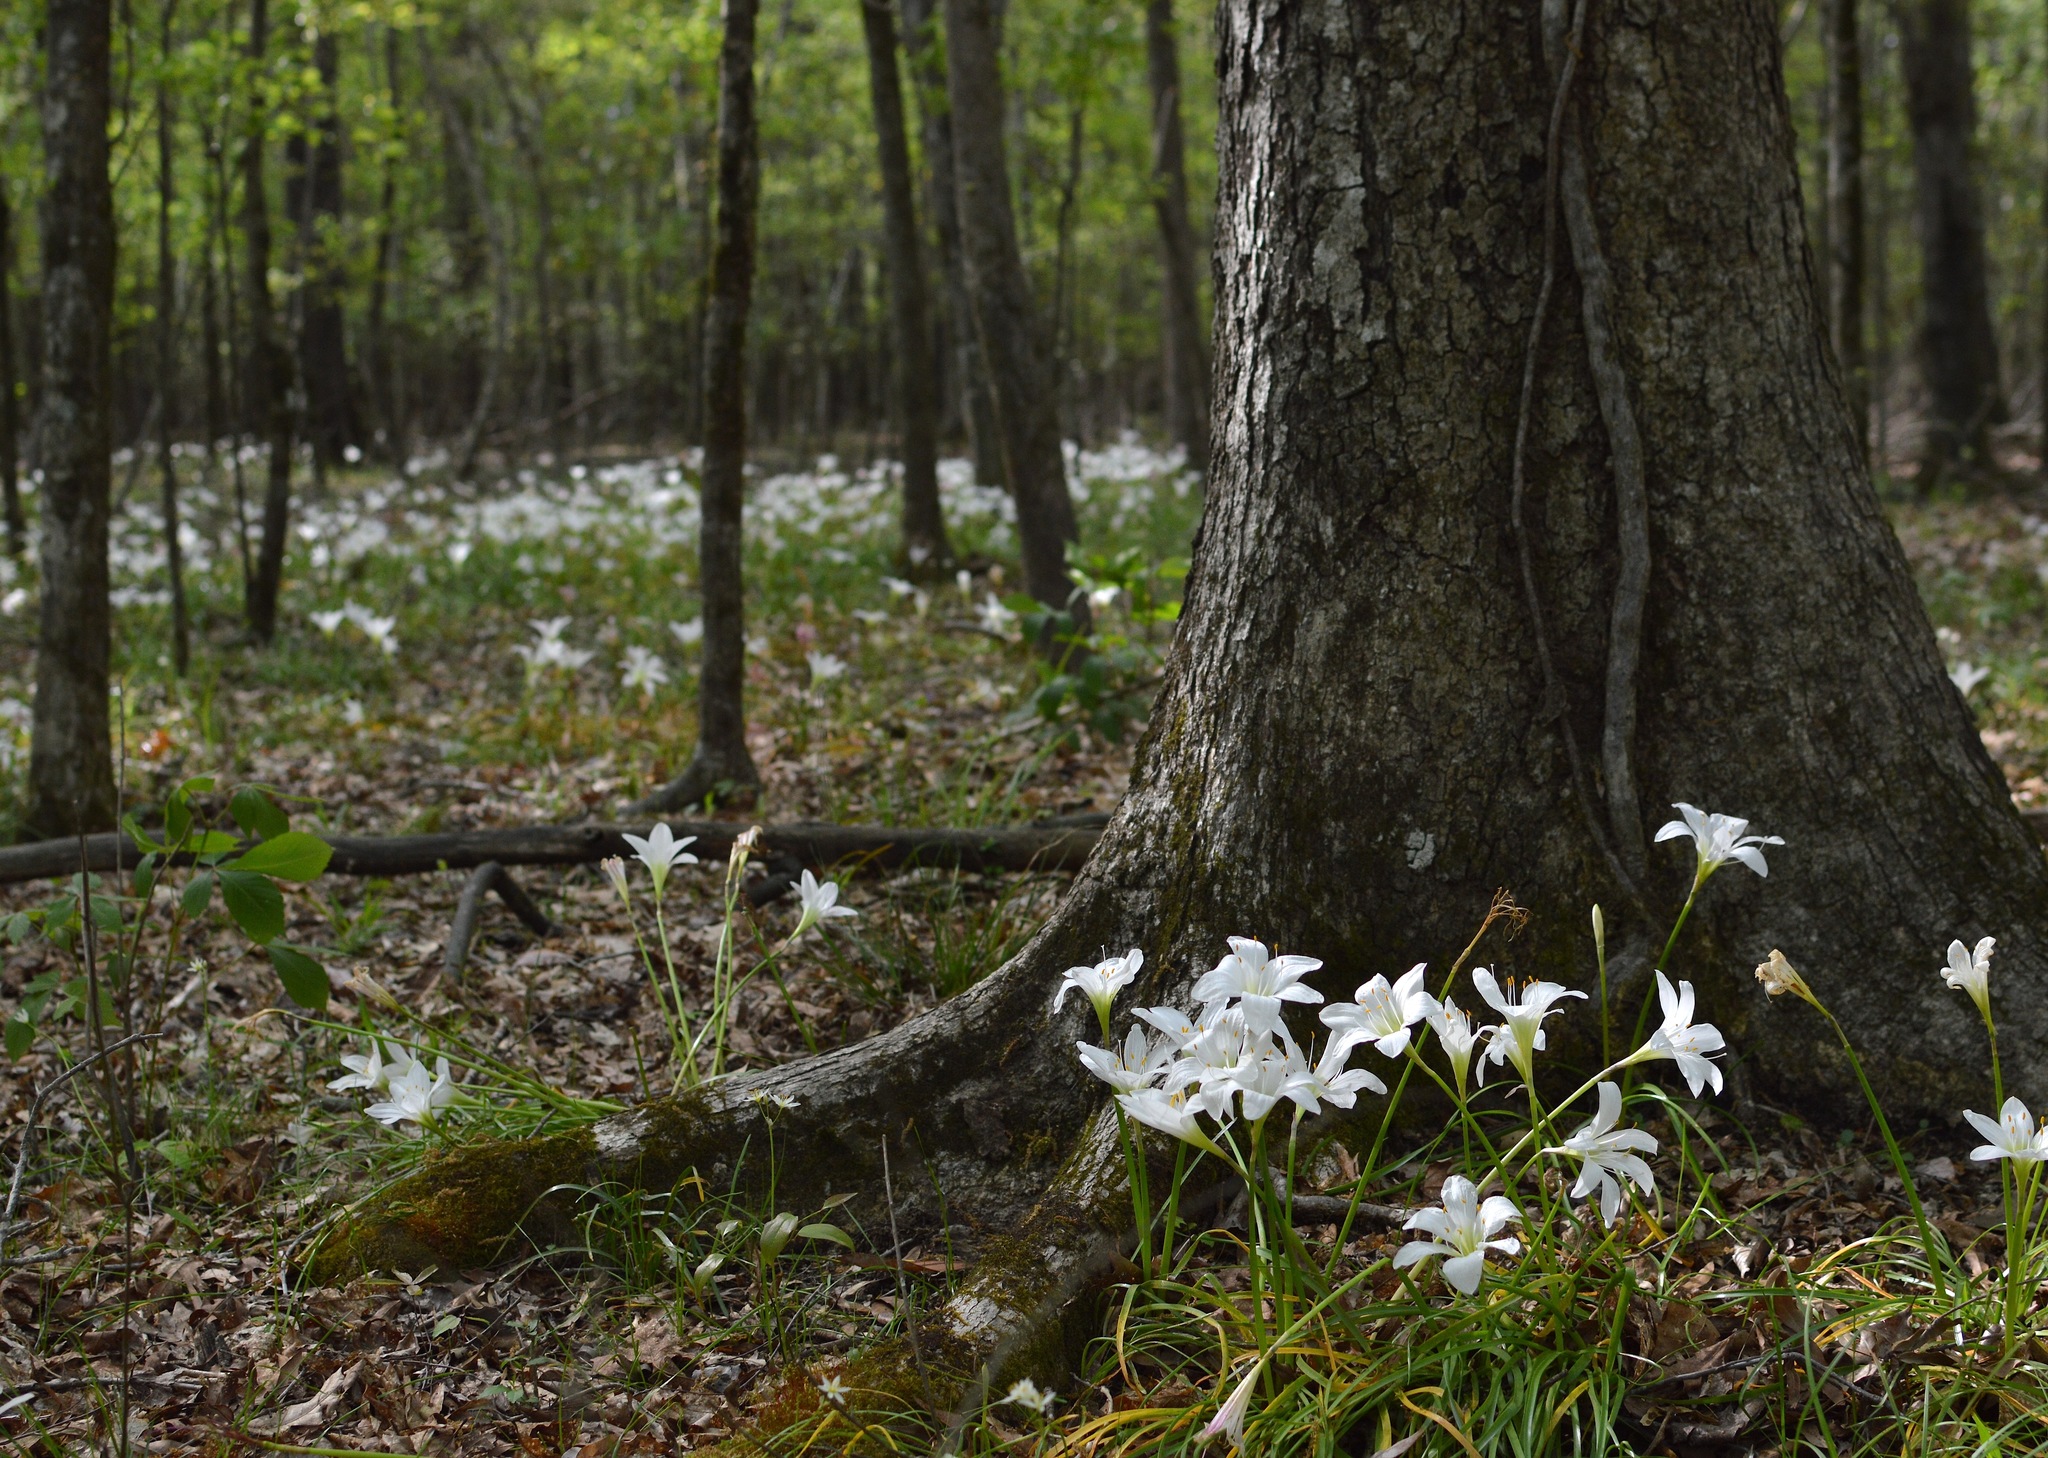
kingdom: Plantae
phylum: Tracheophyta
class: Liliopsida
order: Asparagales
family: Amaryllidaceae
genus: Zephyranthes
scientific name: Zephyranthes atamasco
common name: Atamasco lily
